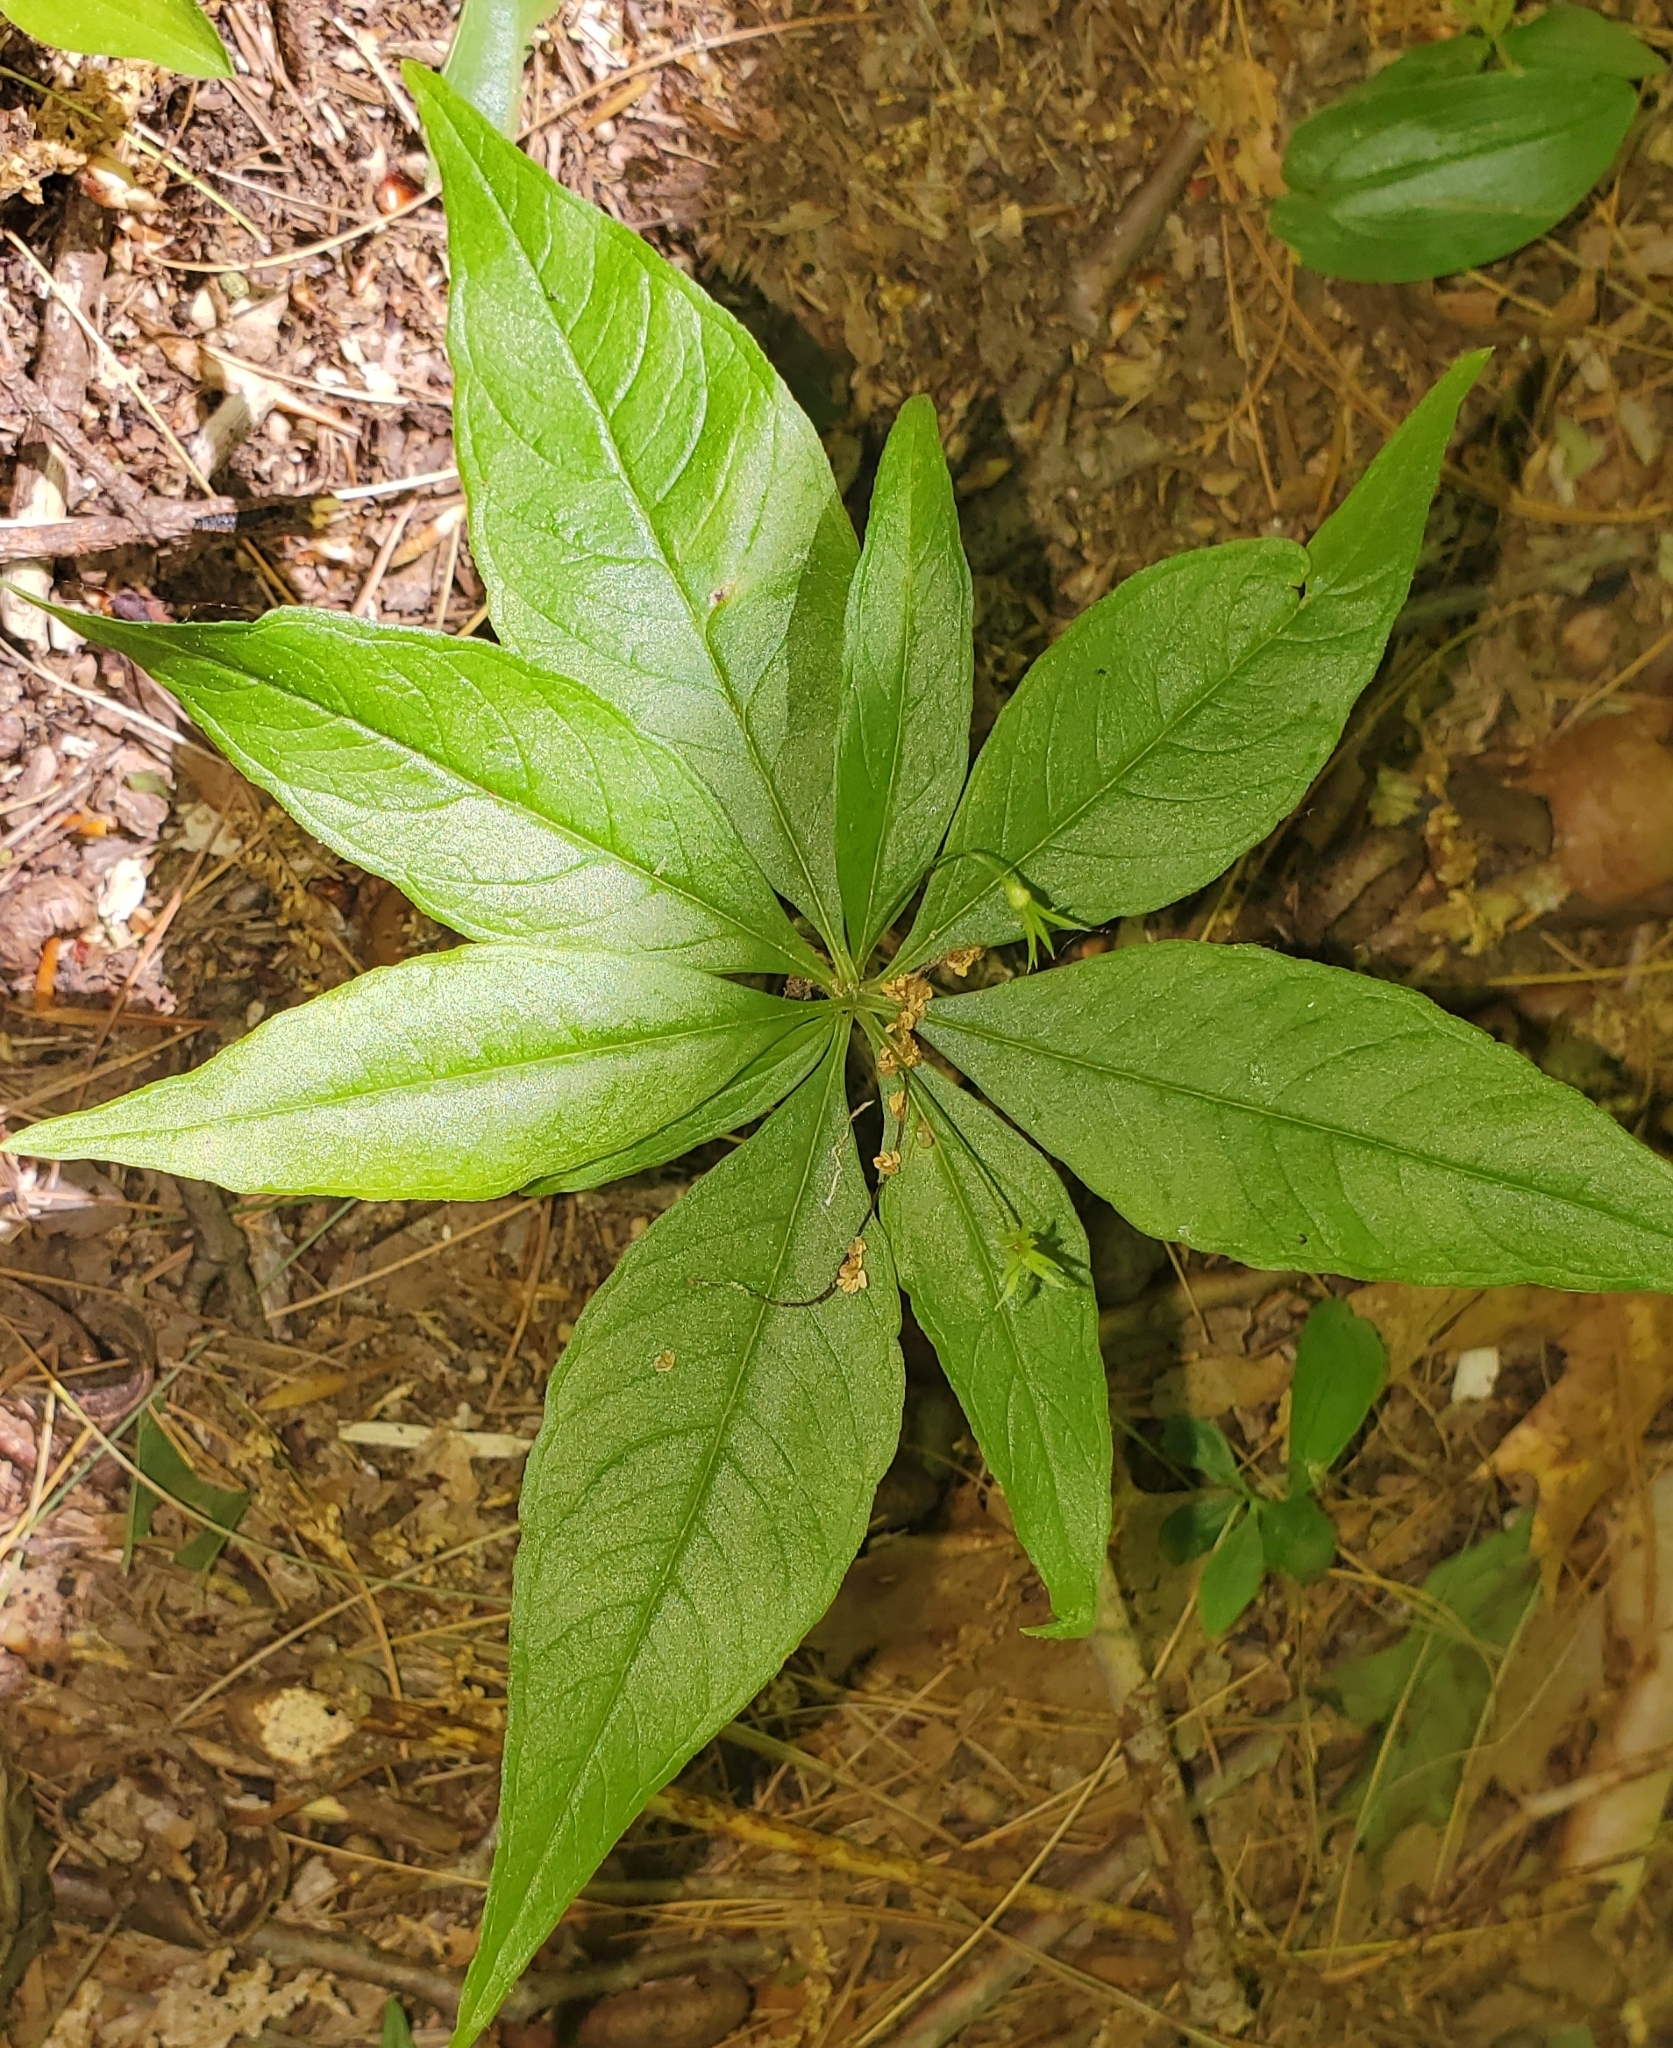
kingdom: Plantae
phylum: Tracheophyta
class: Magnoliopsida
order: Ericales
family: Primulaceae
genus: Lysimachia
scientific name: Lysimachia borealis
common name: American starflower
